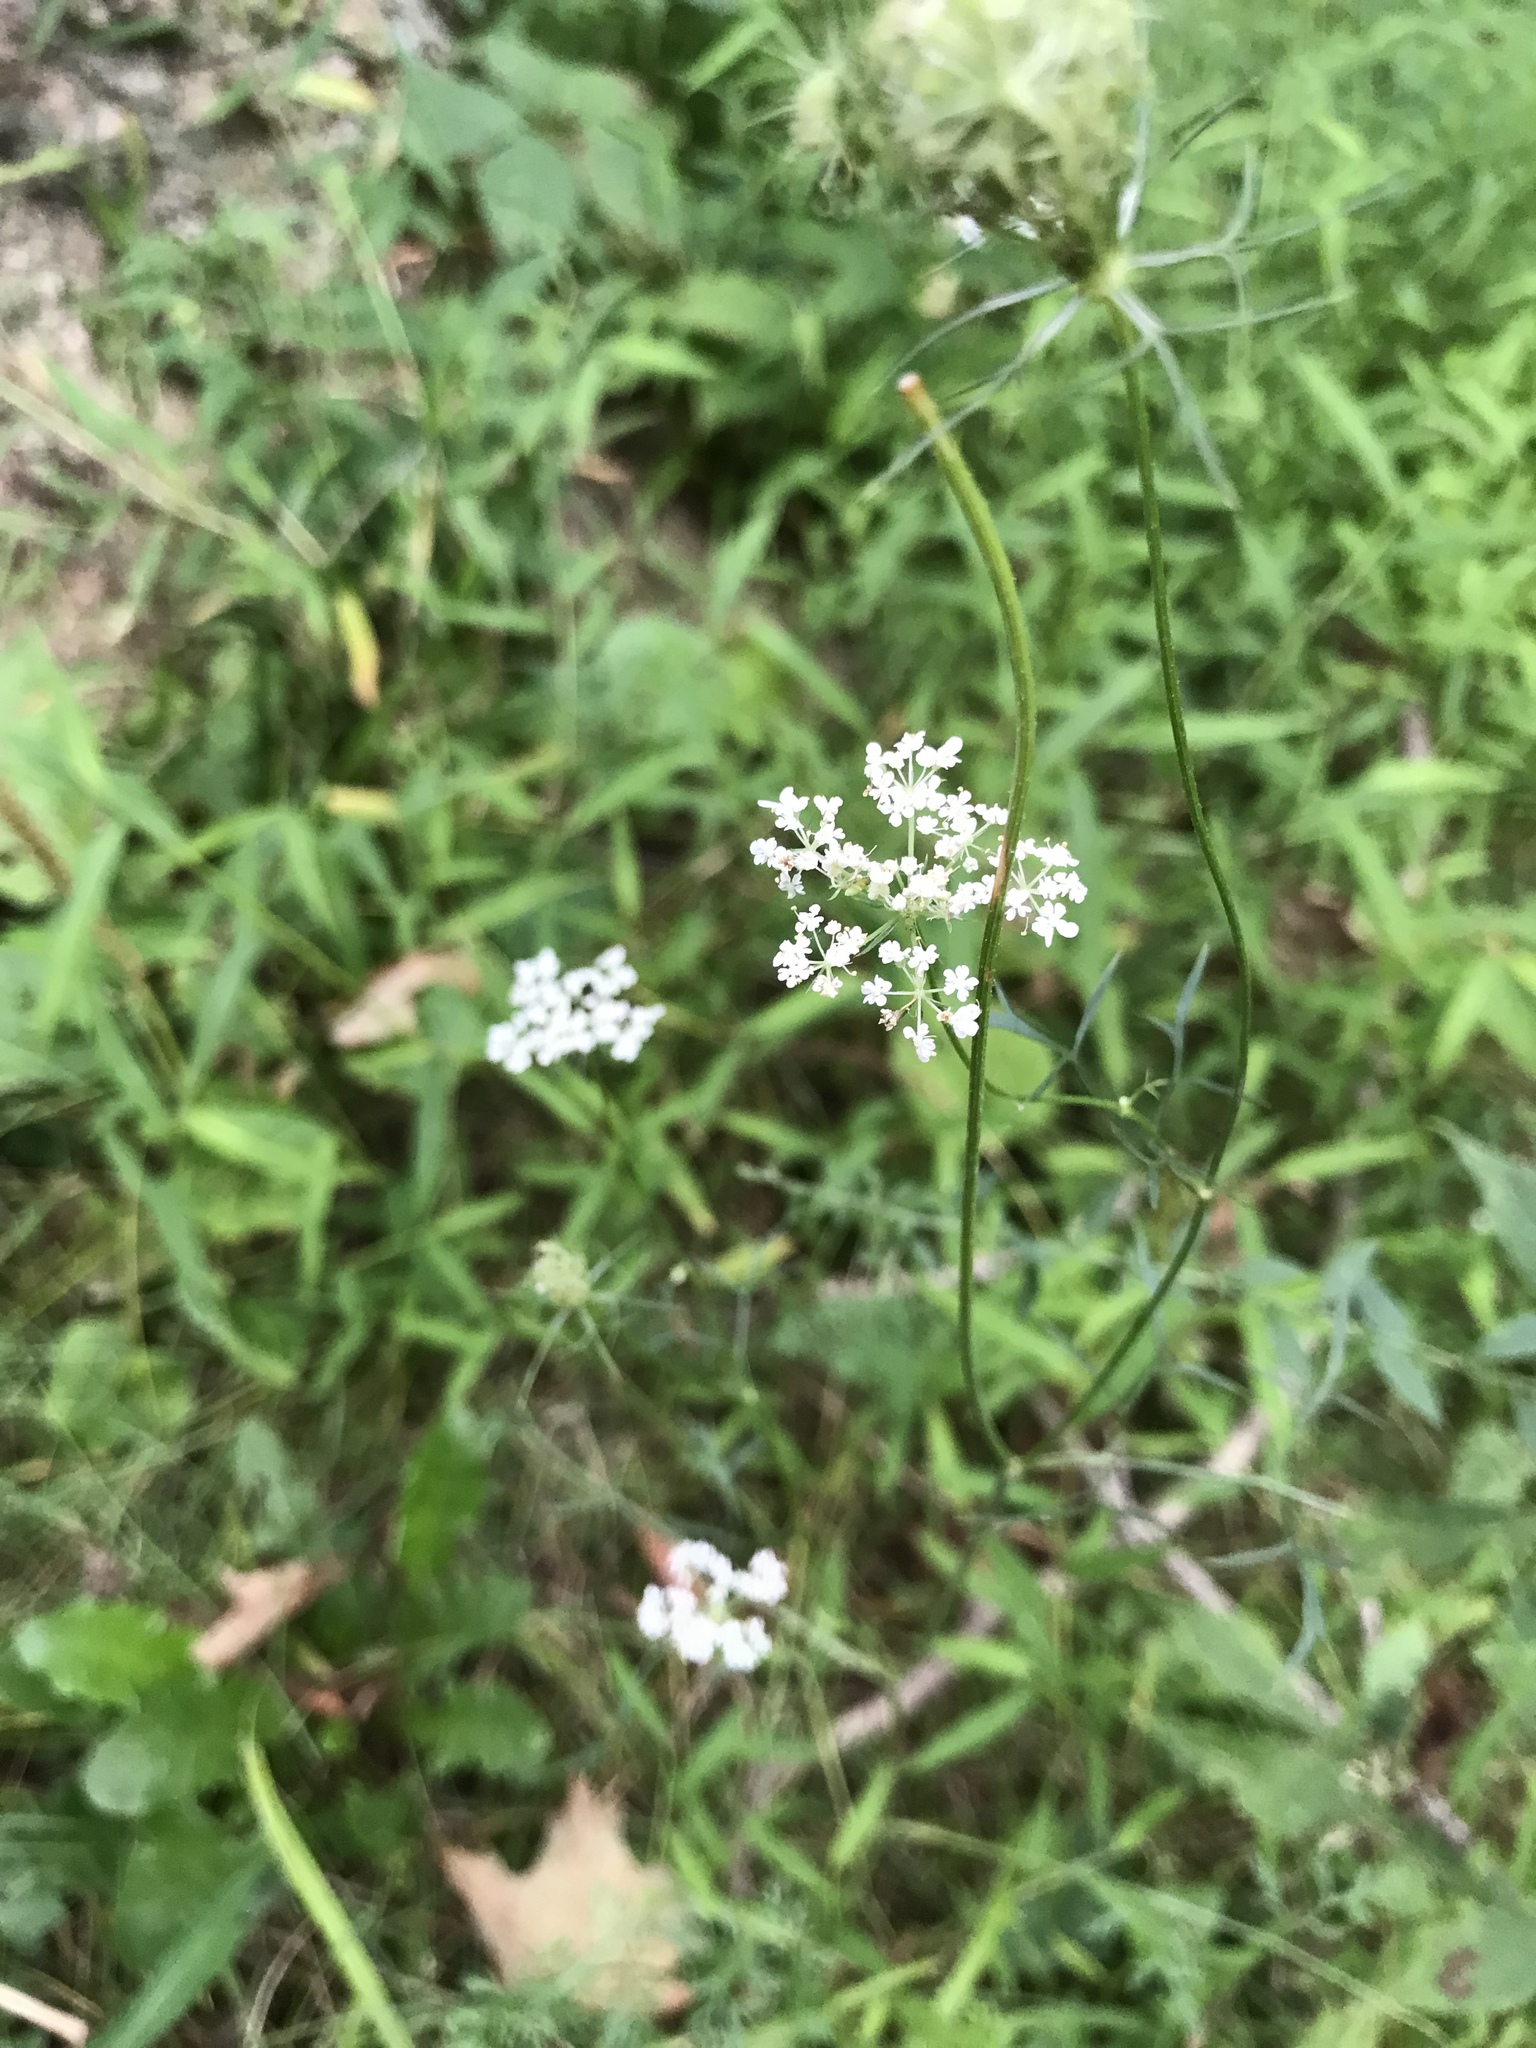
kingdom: Plantae
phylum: Tracheophyta
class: Magnoliopsida
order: Apiales
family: Apiaceae
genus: Daucus
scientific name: Daucus carota
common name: Wild carrot
